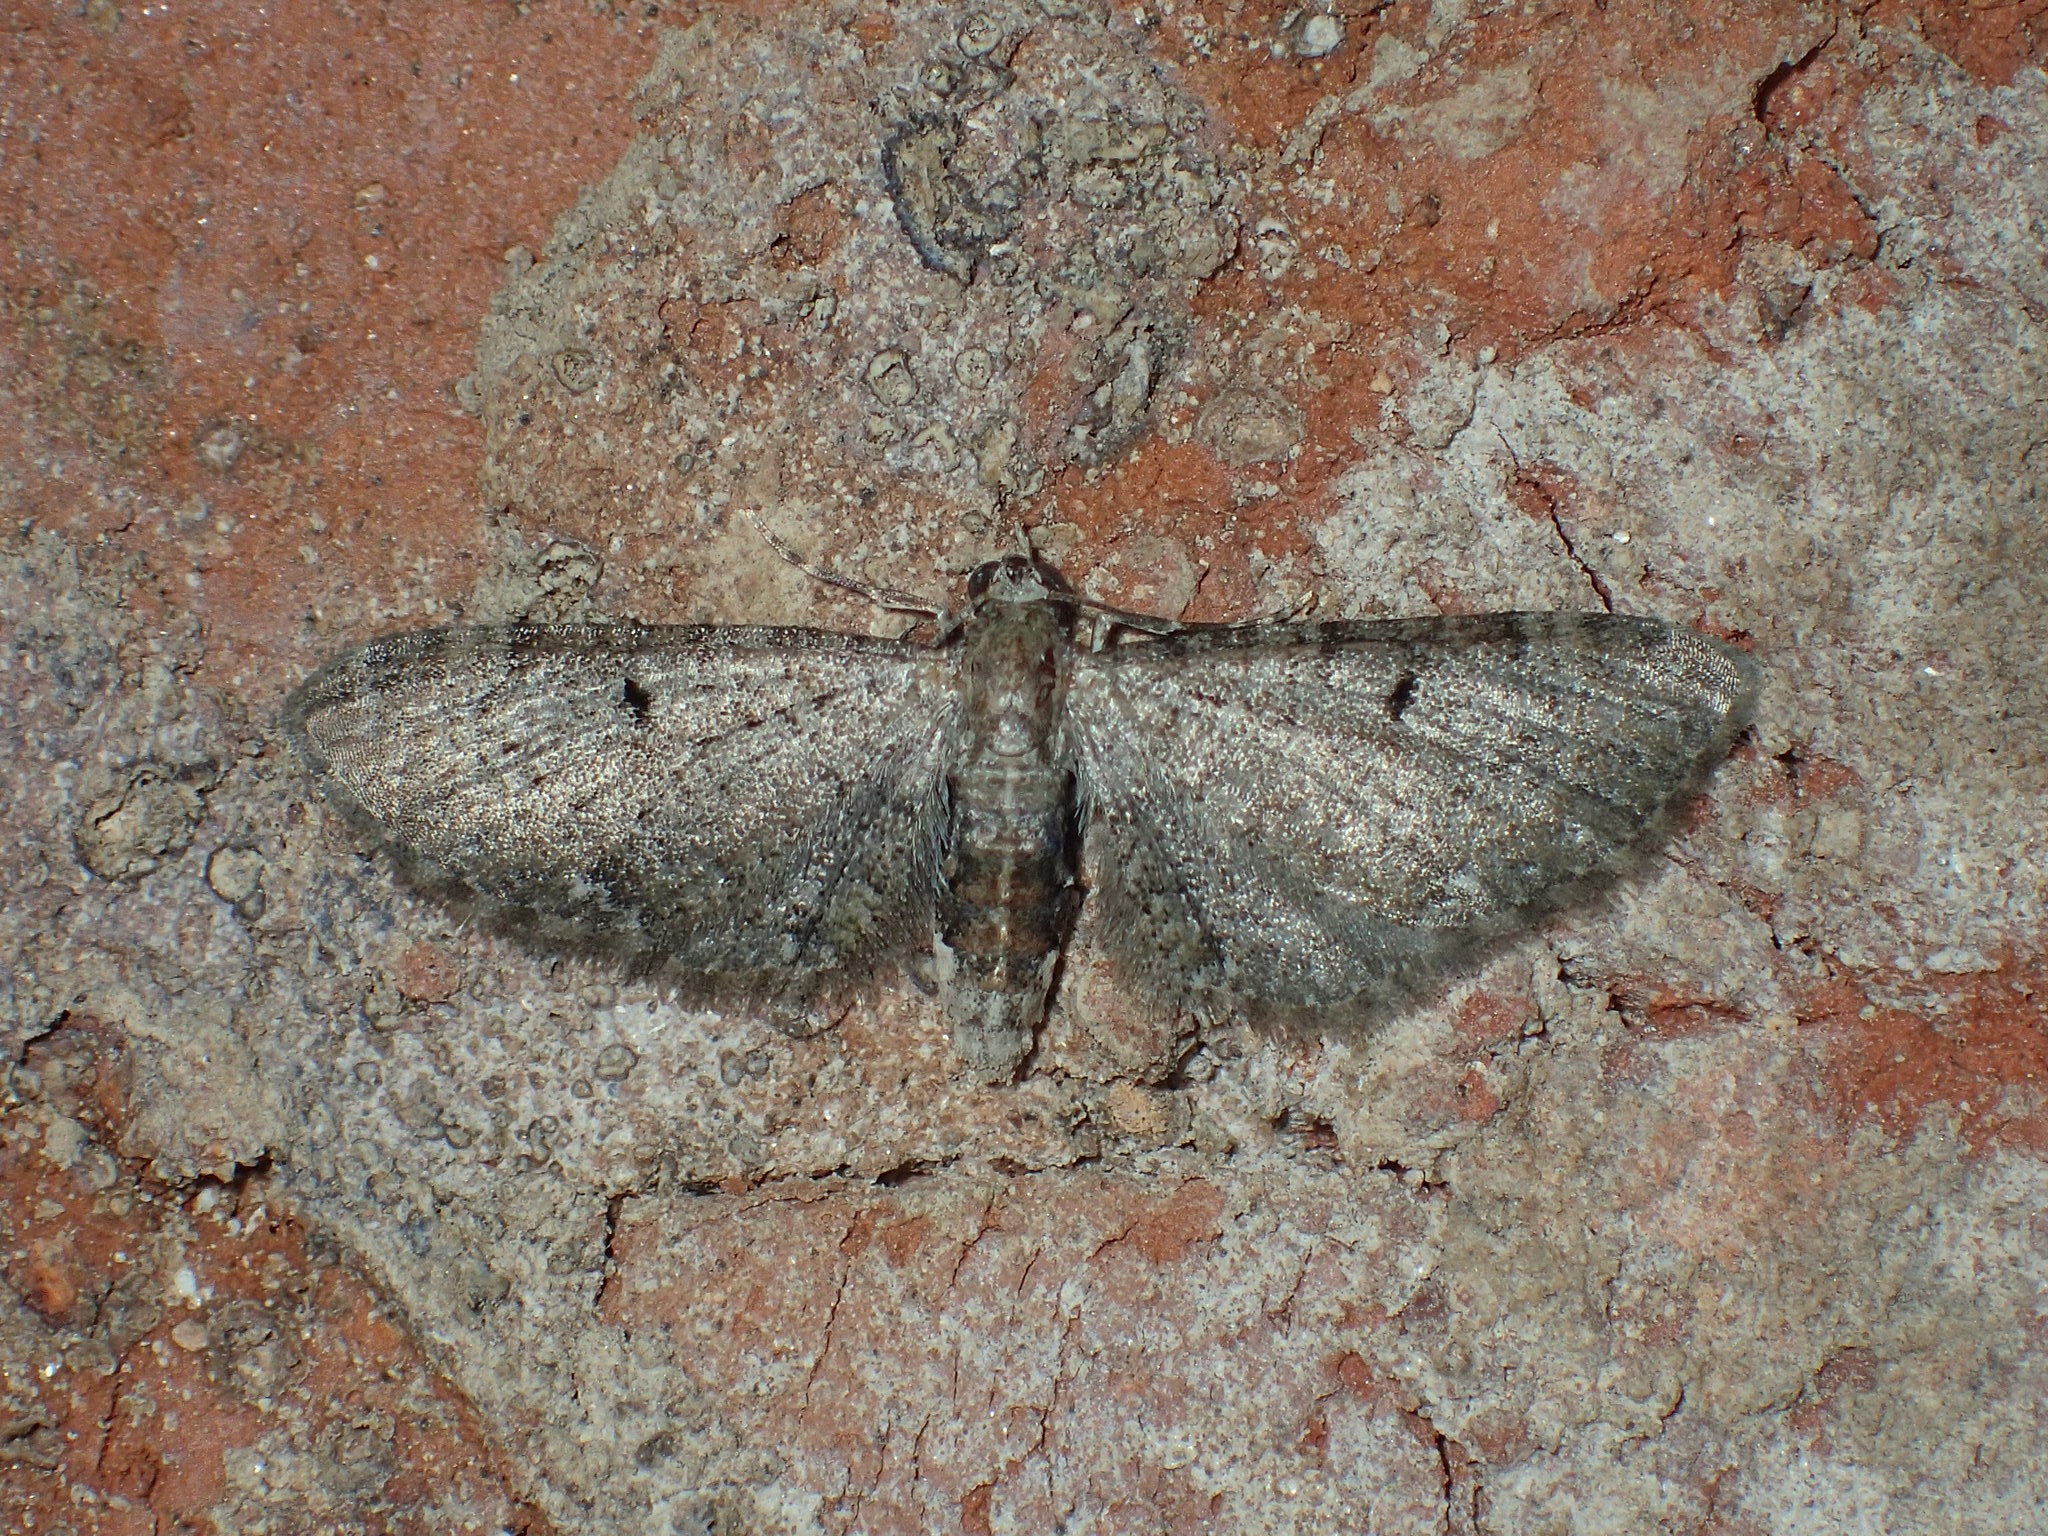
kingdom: Animalia
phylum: Arthropoda
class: Insecta
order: Lepidoptera
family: Geometridae
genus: Eupithecia
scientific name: Eupithecia miserulata
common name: Common eupithecia
